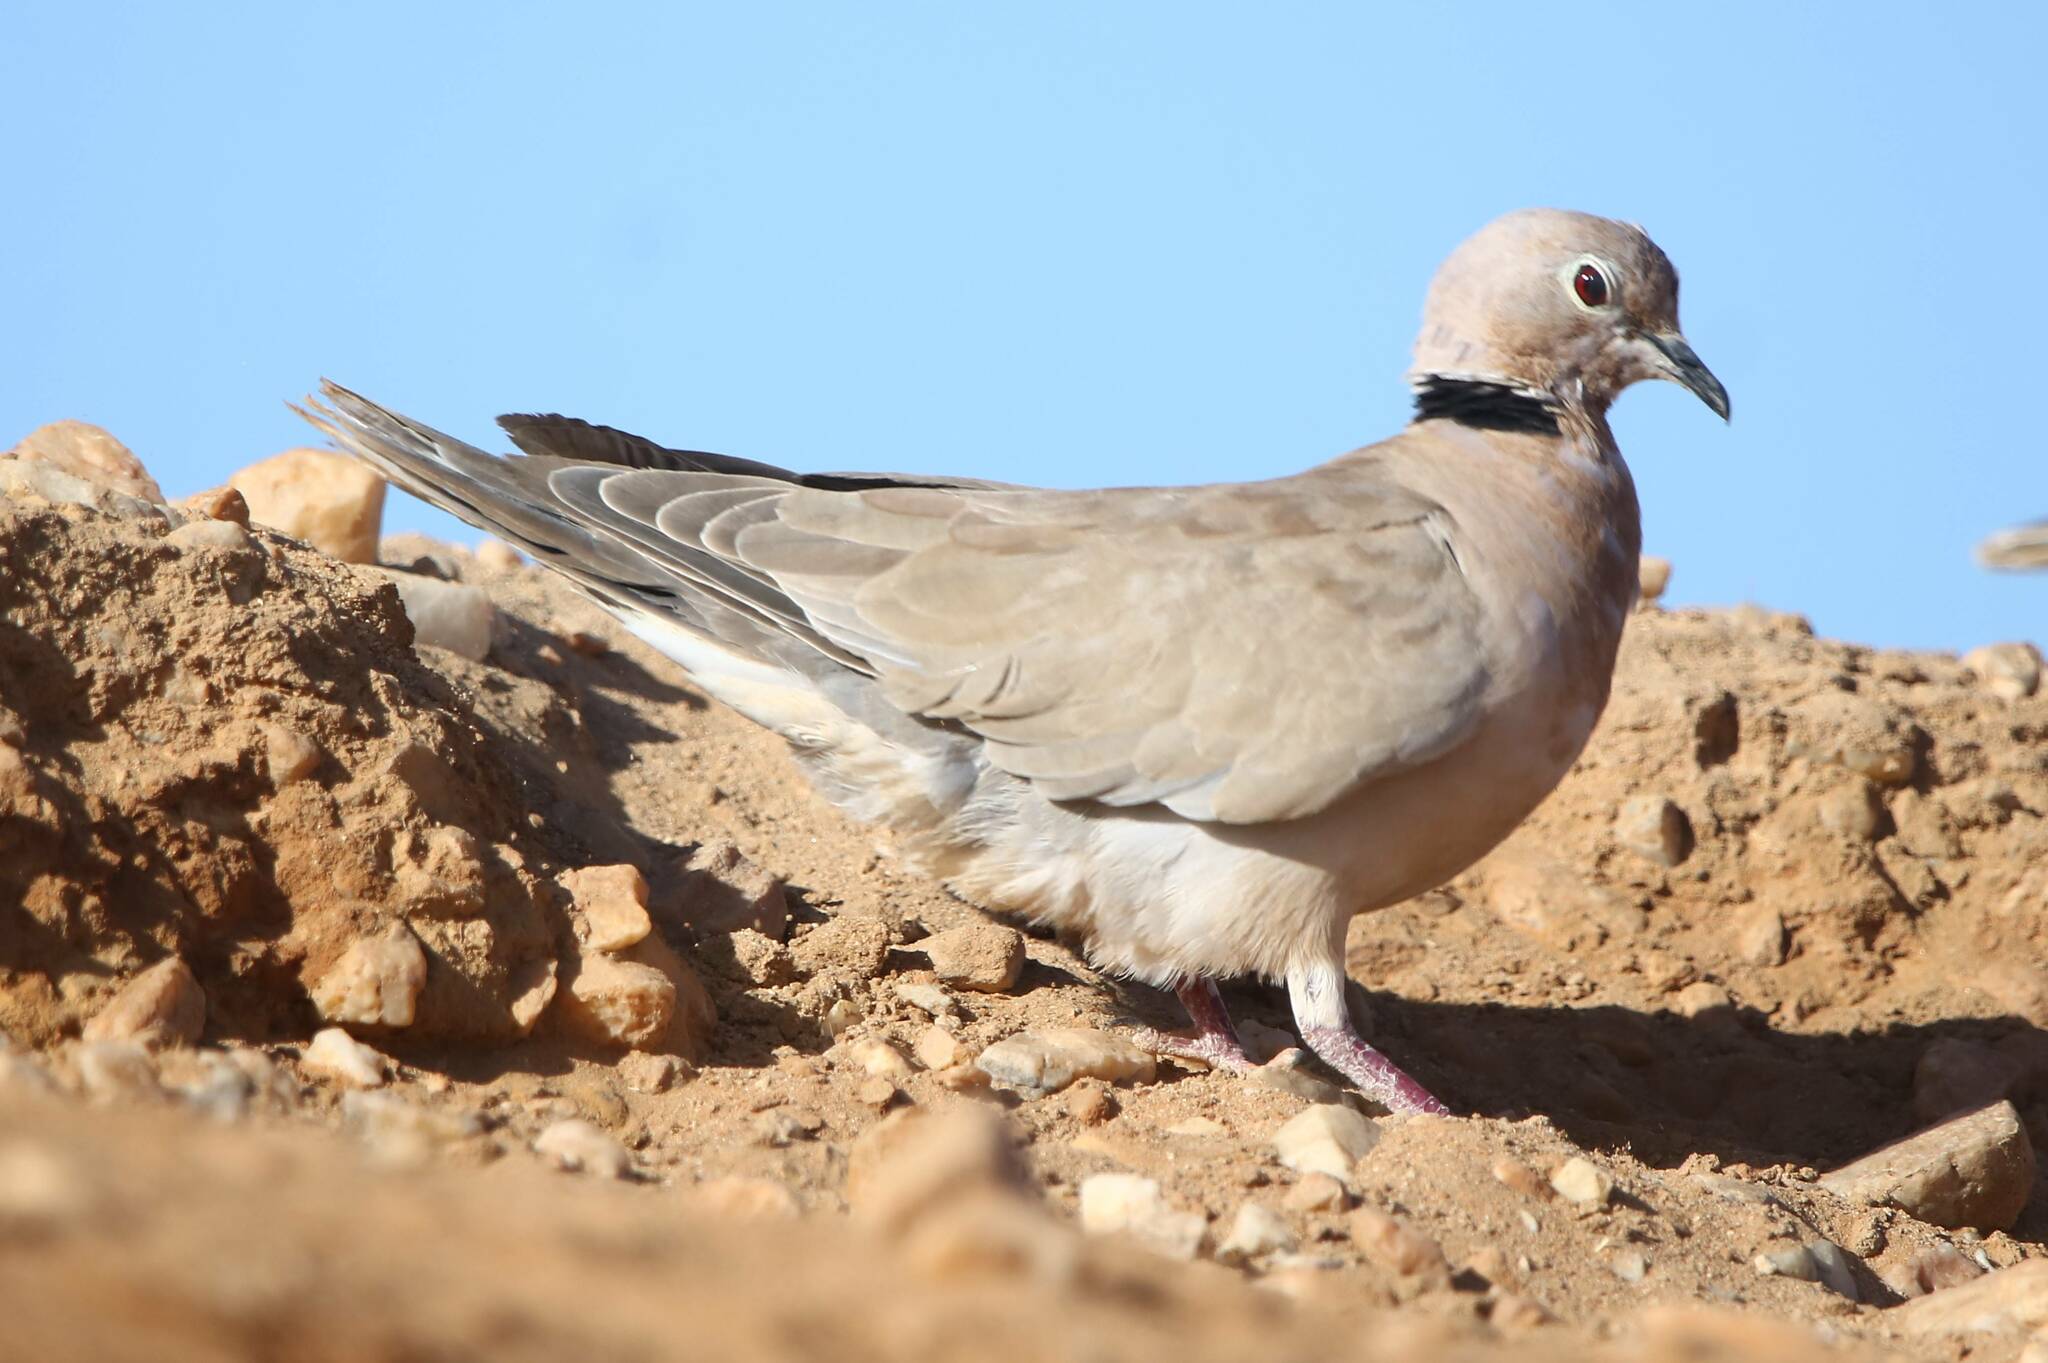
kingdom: Animalia
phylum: Chordata
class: Aves
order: Columbiformes
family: Columbidae
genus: Streptopelia
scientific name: Streptopelia roseogrisea
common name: African collared dove
